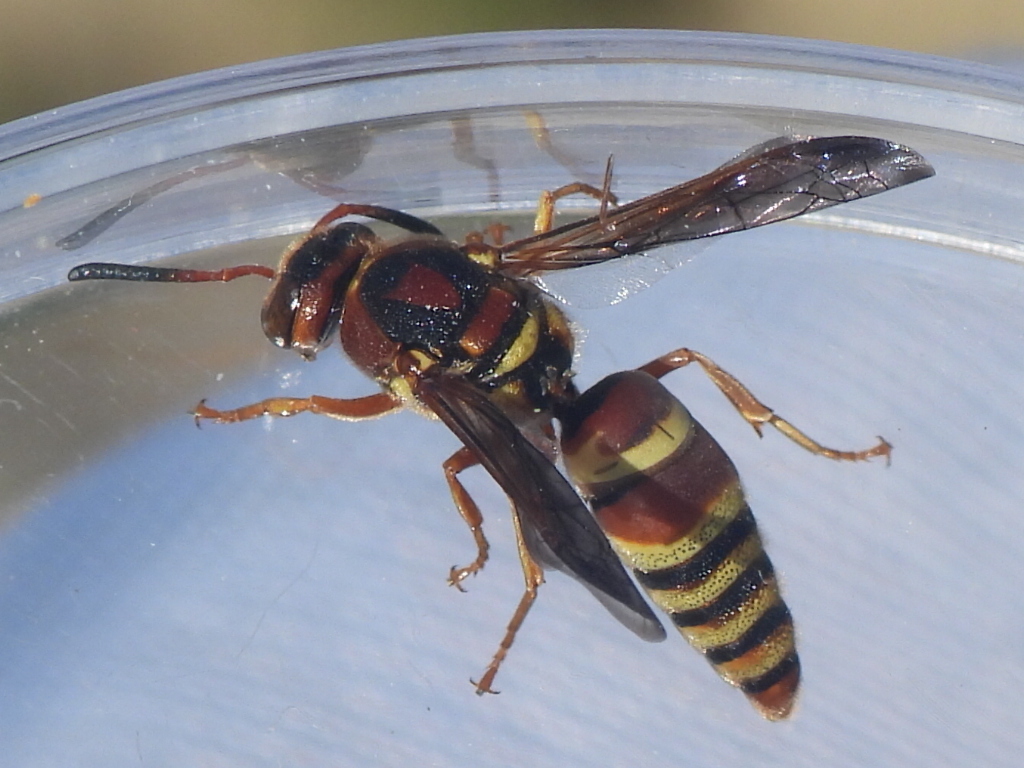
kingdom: Animalia
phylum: Arthropoda
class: Insecta
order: Hymenoptera
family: Eumenidae
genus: Euodynerus
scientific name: Euodynerus pratensis
